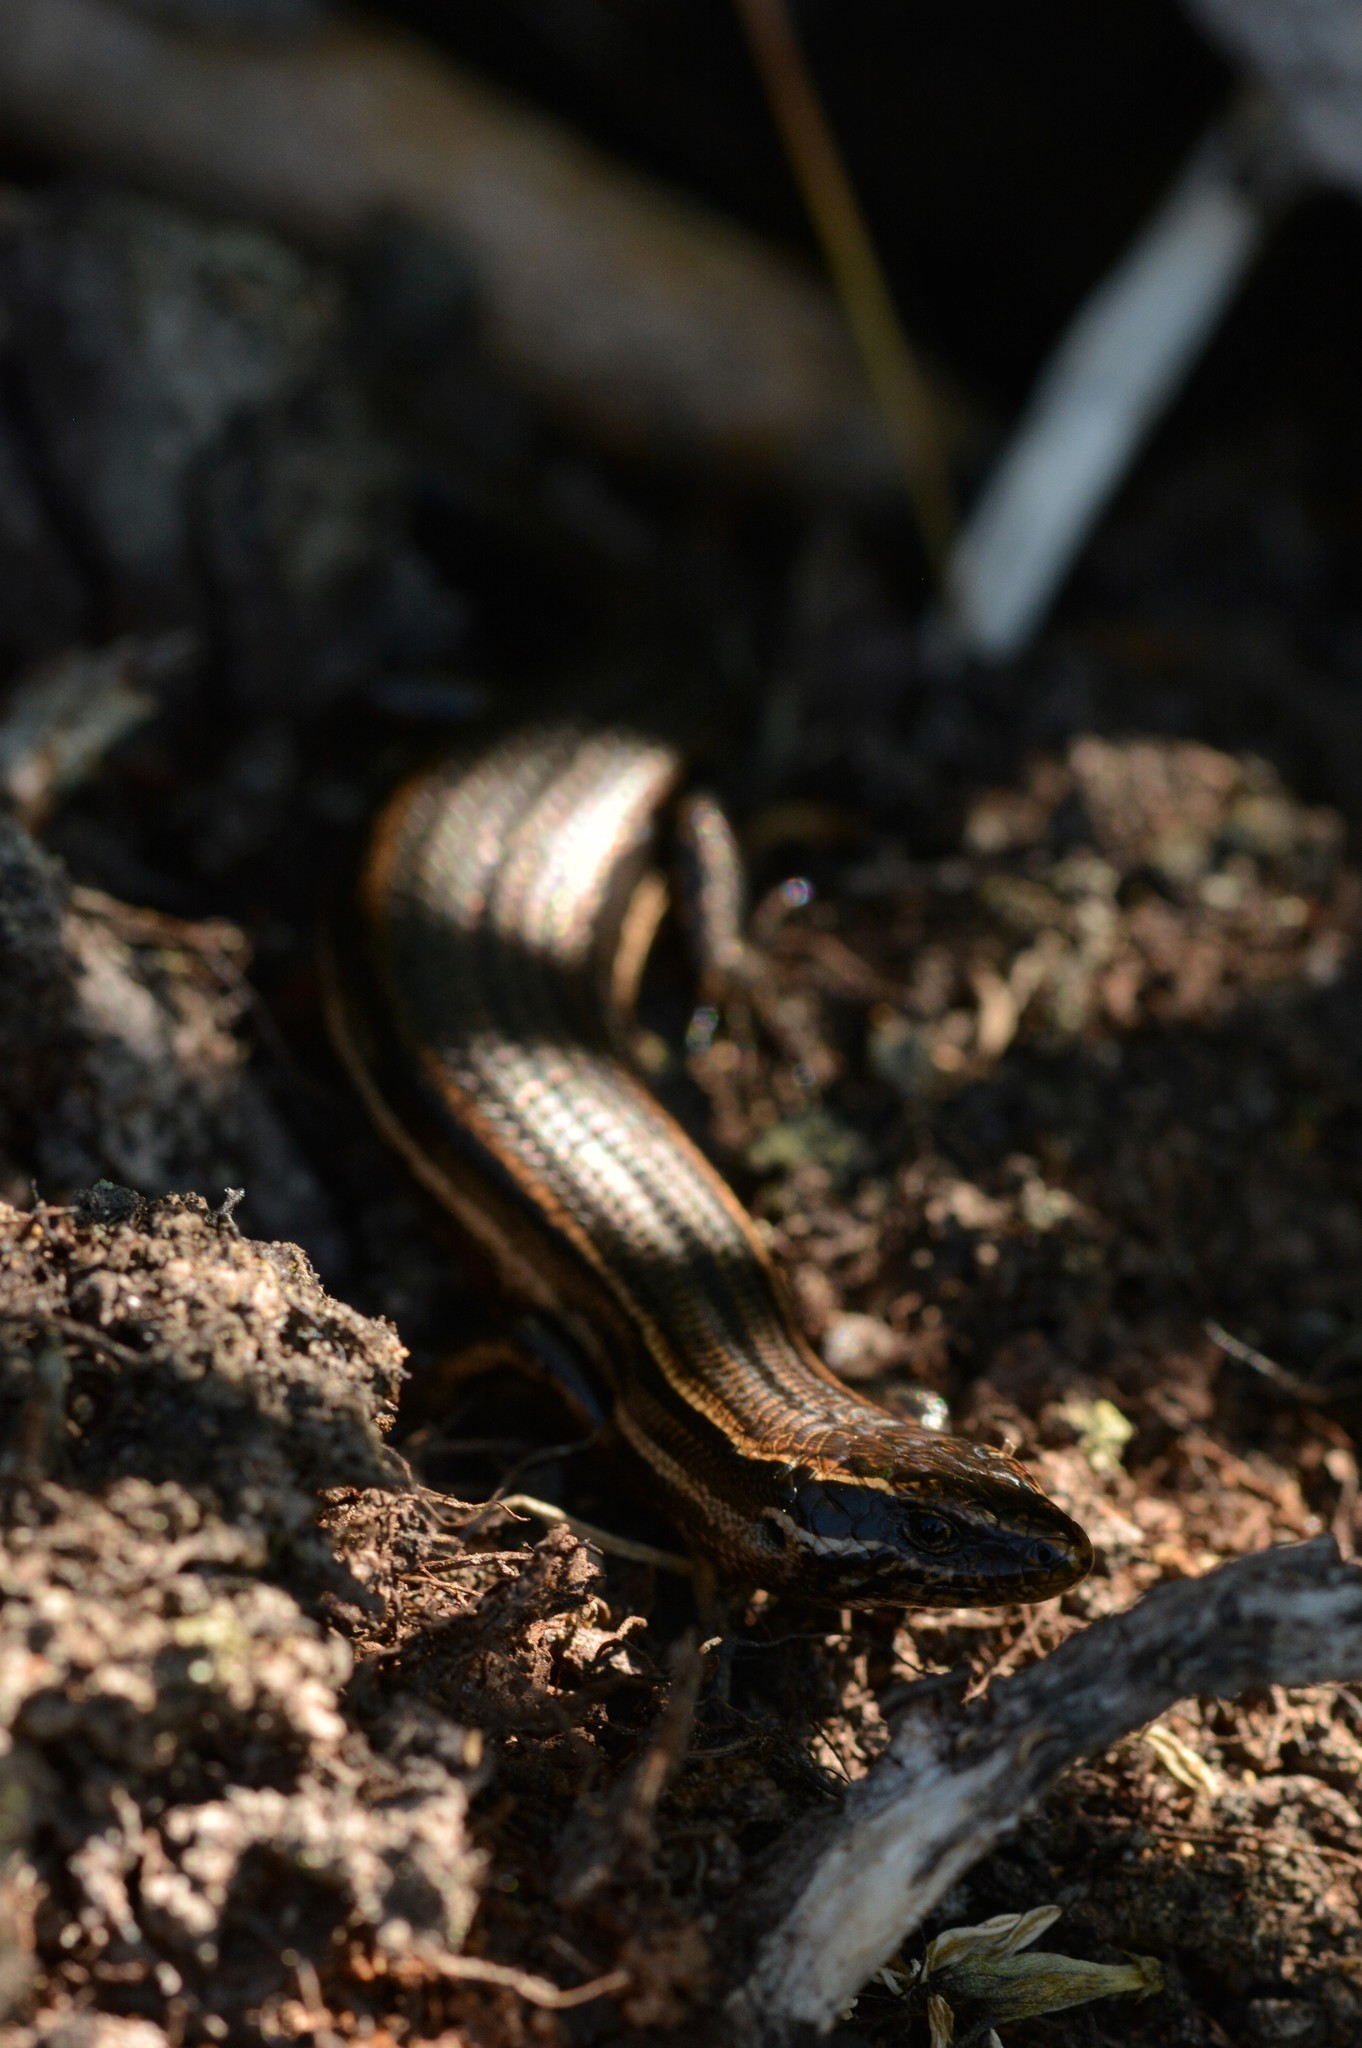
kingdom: Animalia
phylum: Chordata
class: Squamata
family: Scincidae
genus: Oligosoma
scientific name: Oligosoma polychroma
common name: Common new zealand skink
